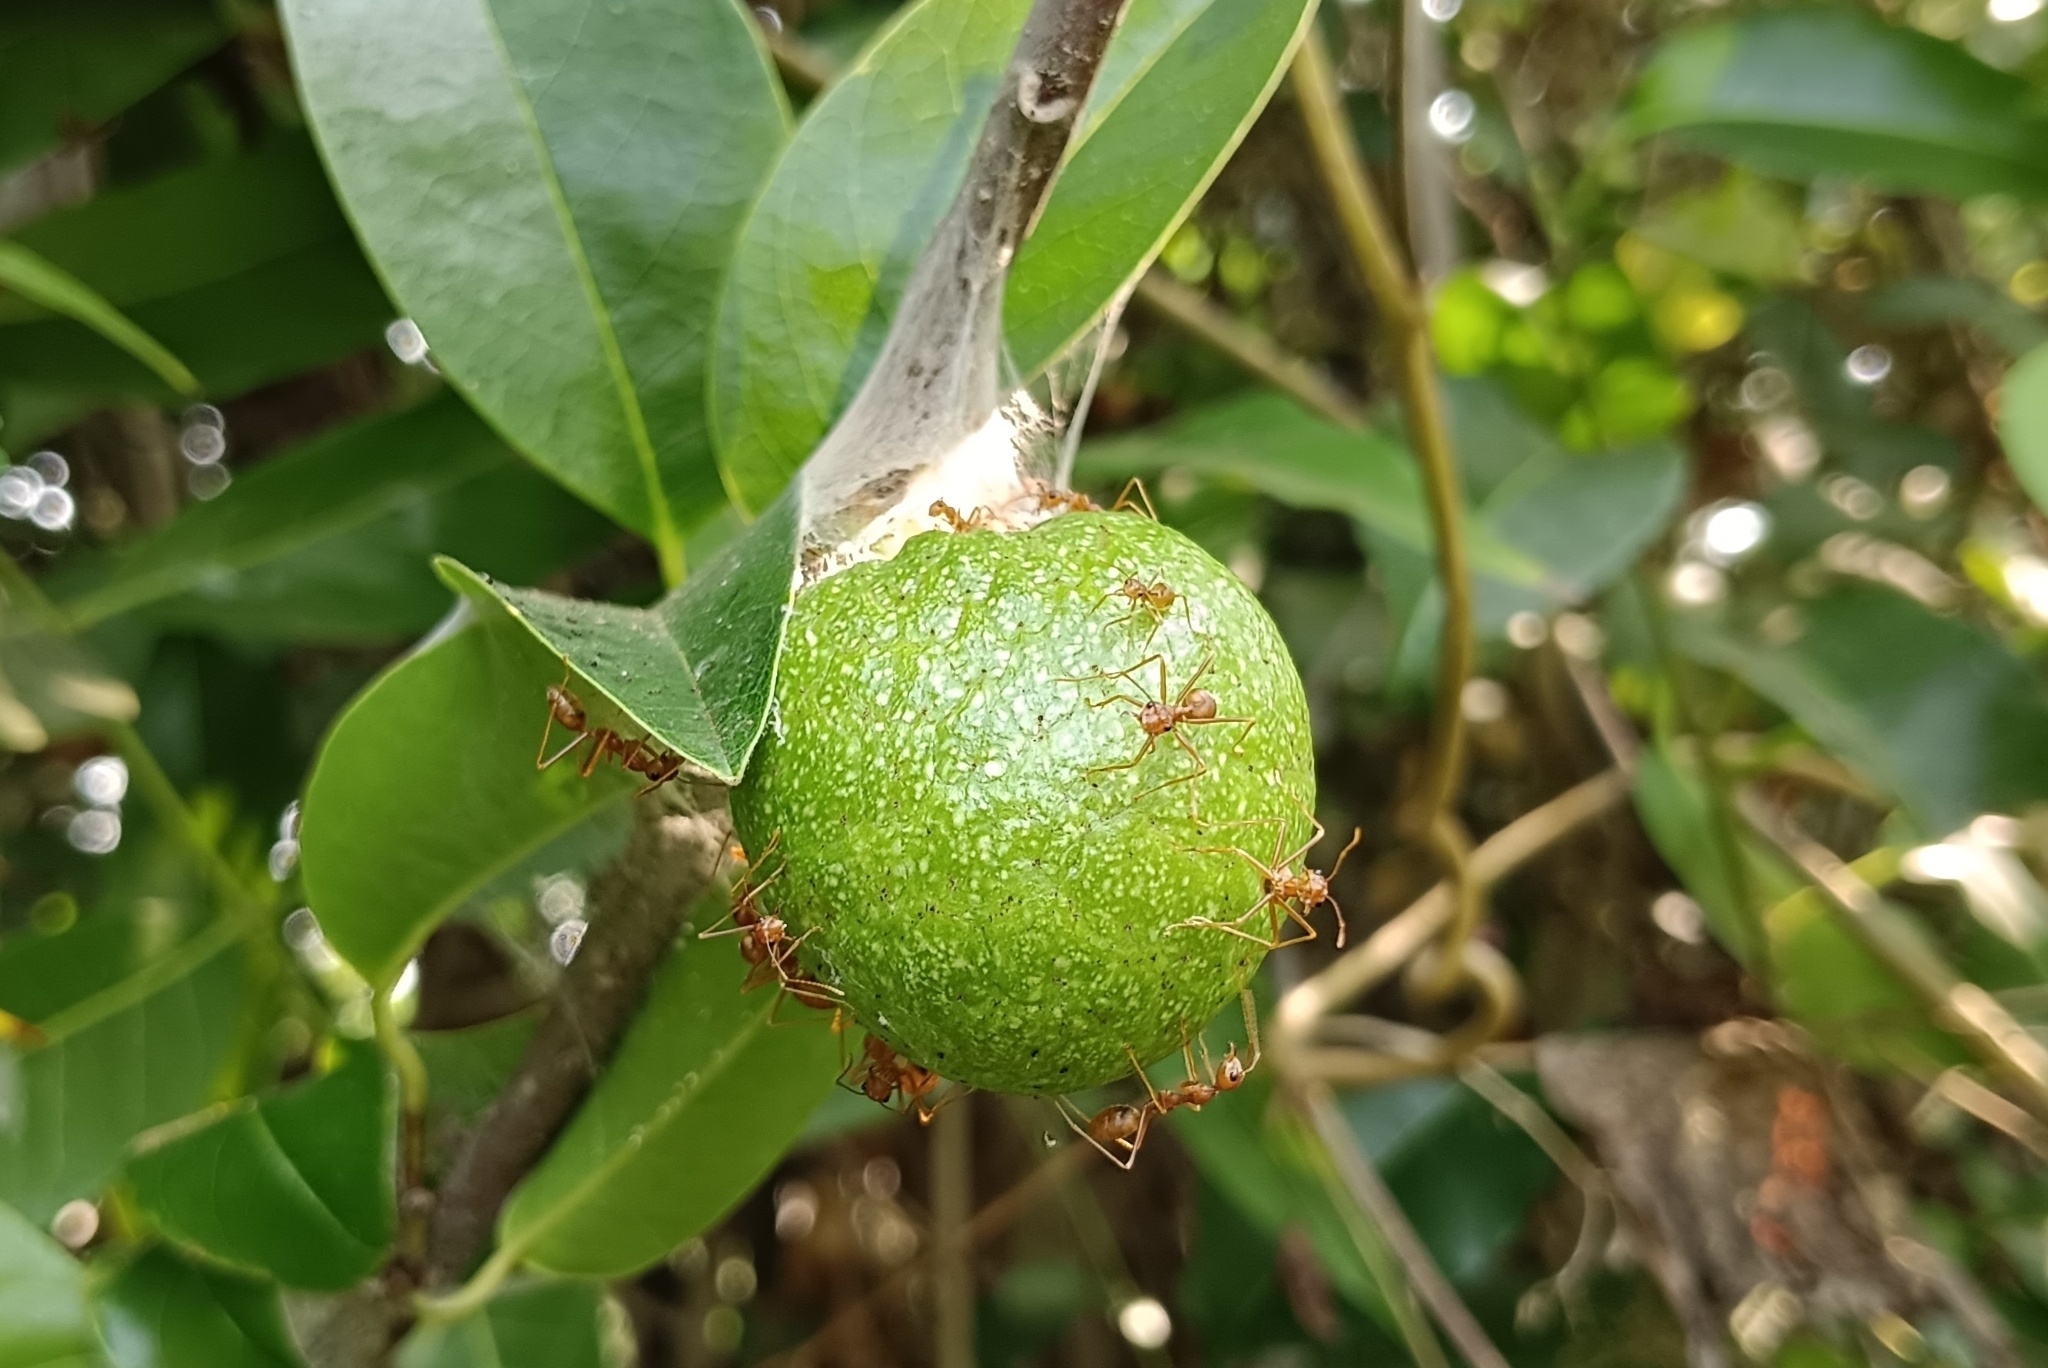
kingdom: Animalia
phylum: Arthropoda
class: Insecta
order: Hymenoptera
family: Formicidae
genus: Oecophylla
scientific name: Oecophylla smaragdina
